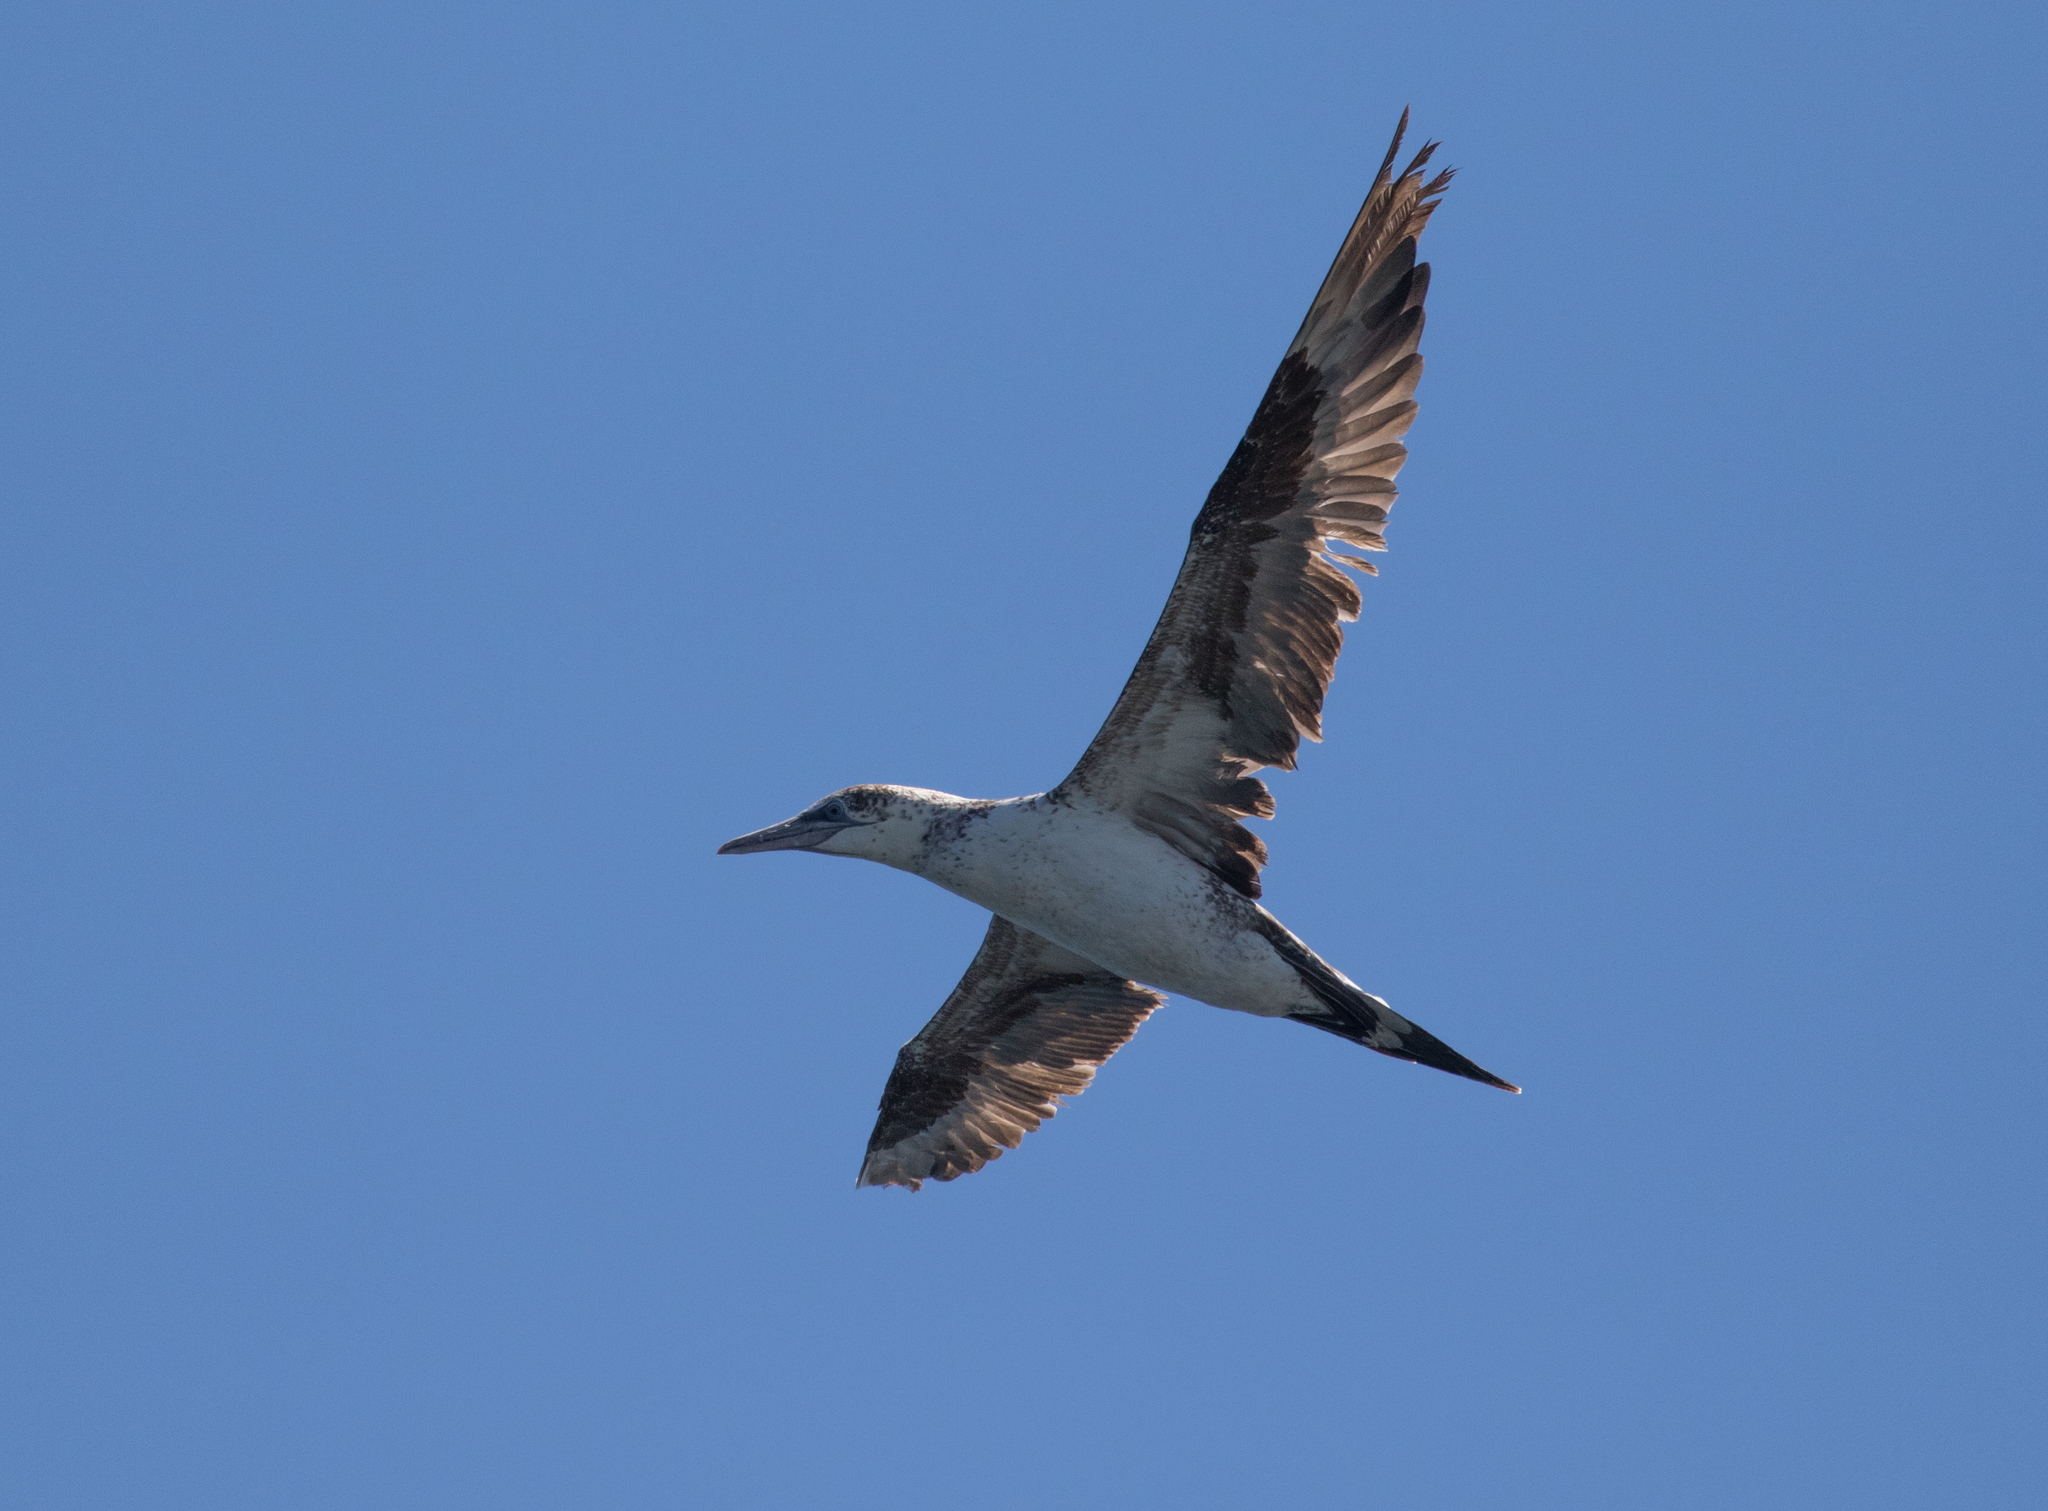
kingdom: Animalia
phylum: Chordata
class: Aves
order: Suliformes
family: Sulidae
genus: Morus
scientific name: Morus bassanus
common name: Northern gannet
